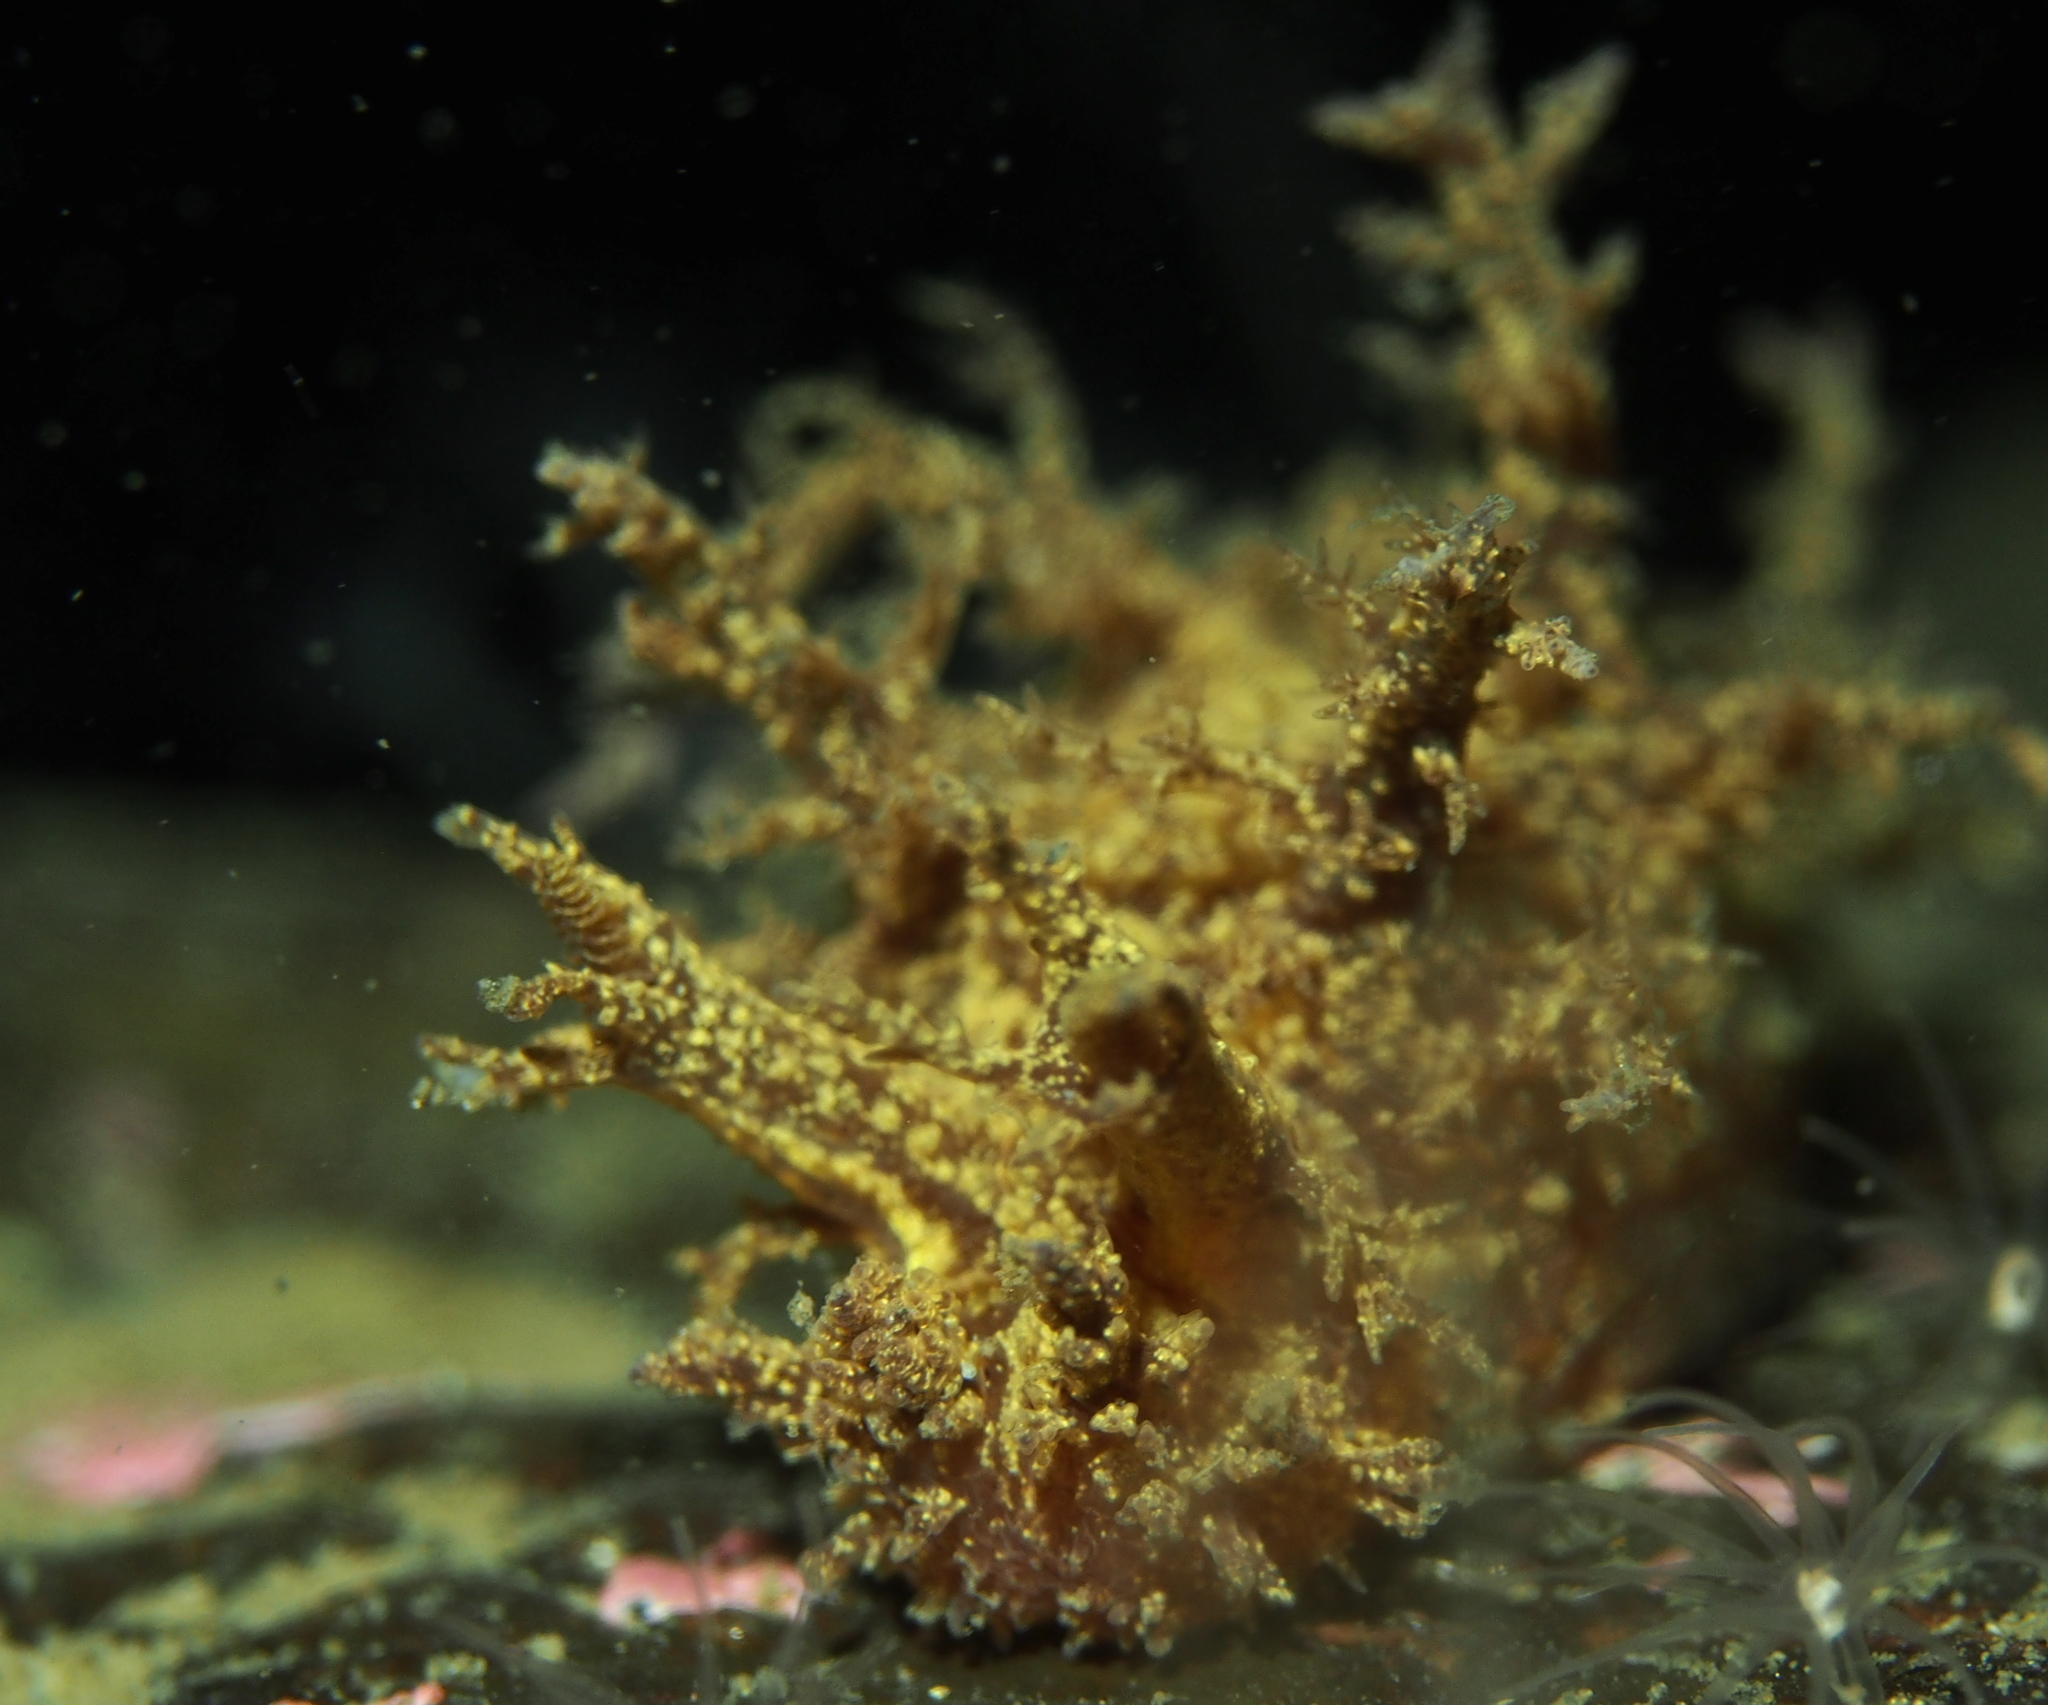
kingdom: Animalia
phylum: Mollusca
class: Gastropoda
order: Nudibranchia
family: Dendronotidae
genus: Dendronotus
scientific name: Dendronotus frondosus
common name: Bushy-backed nudibranch
